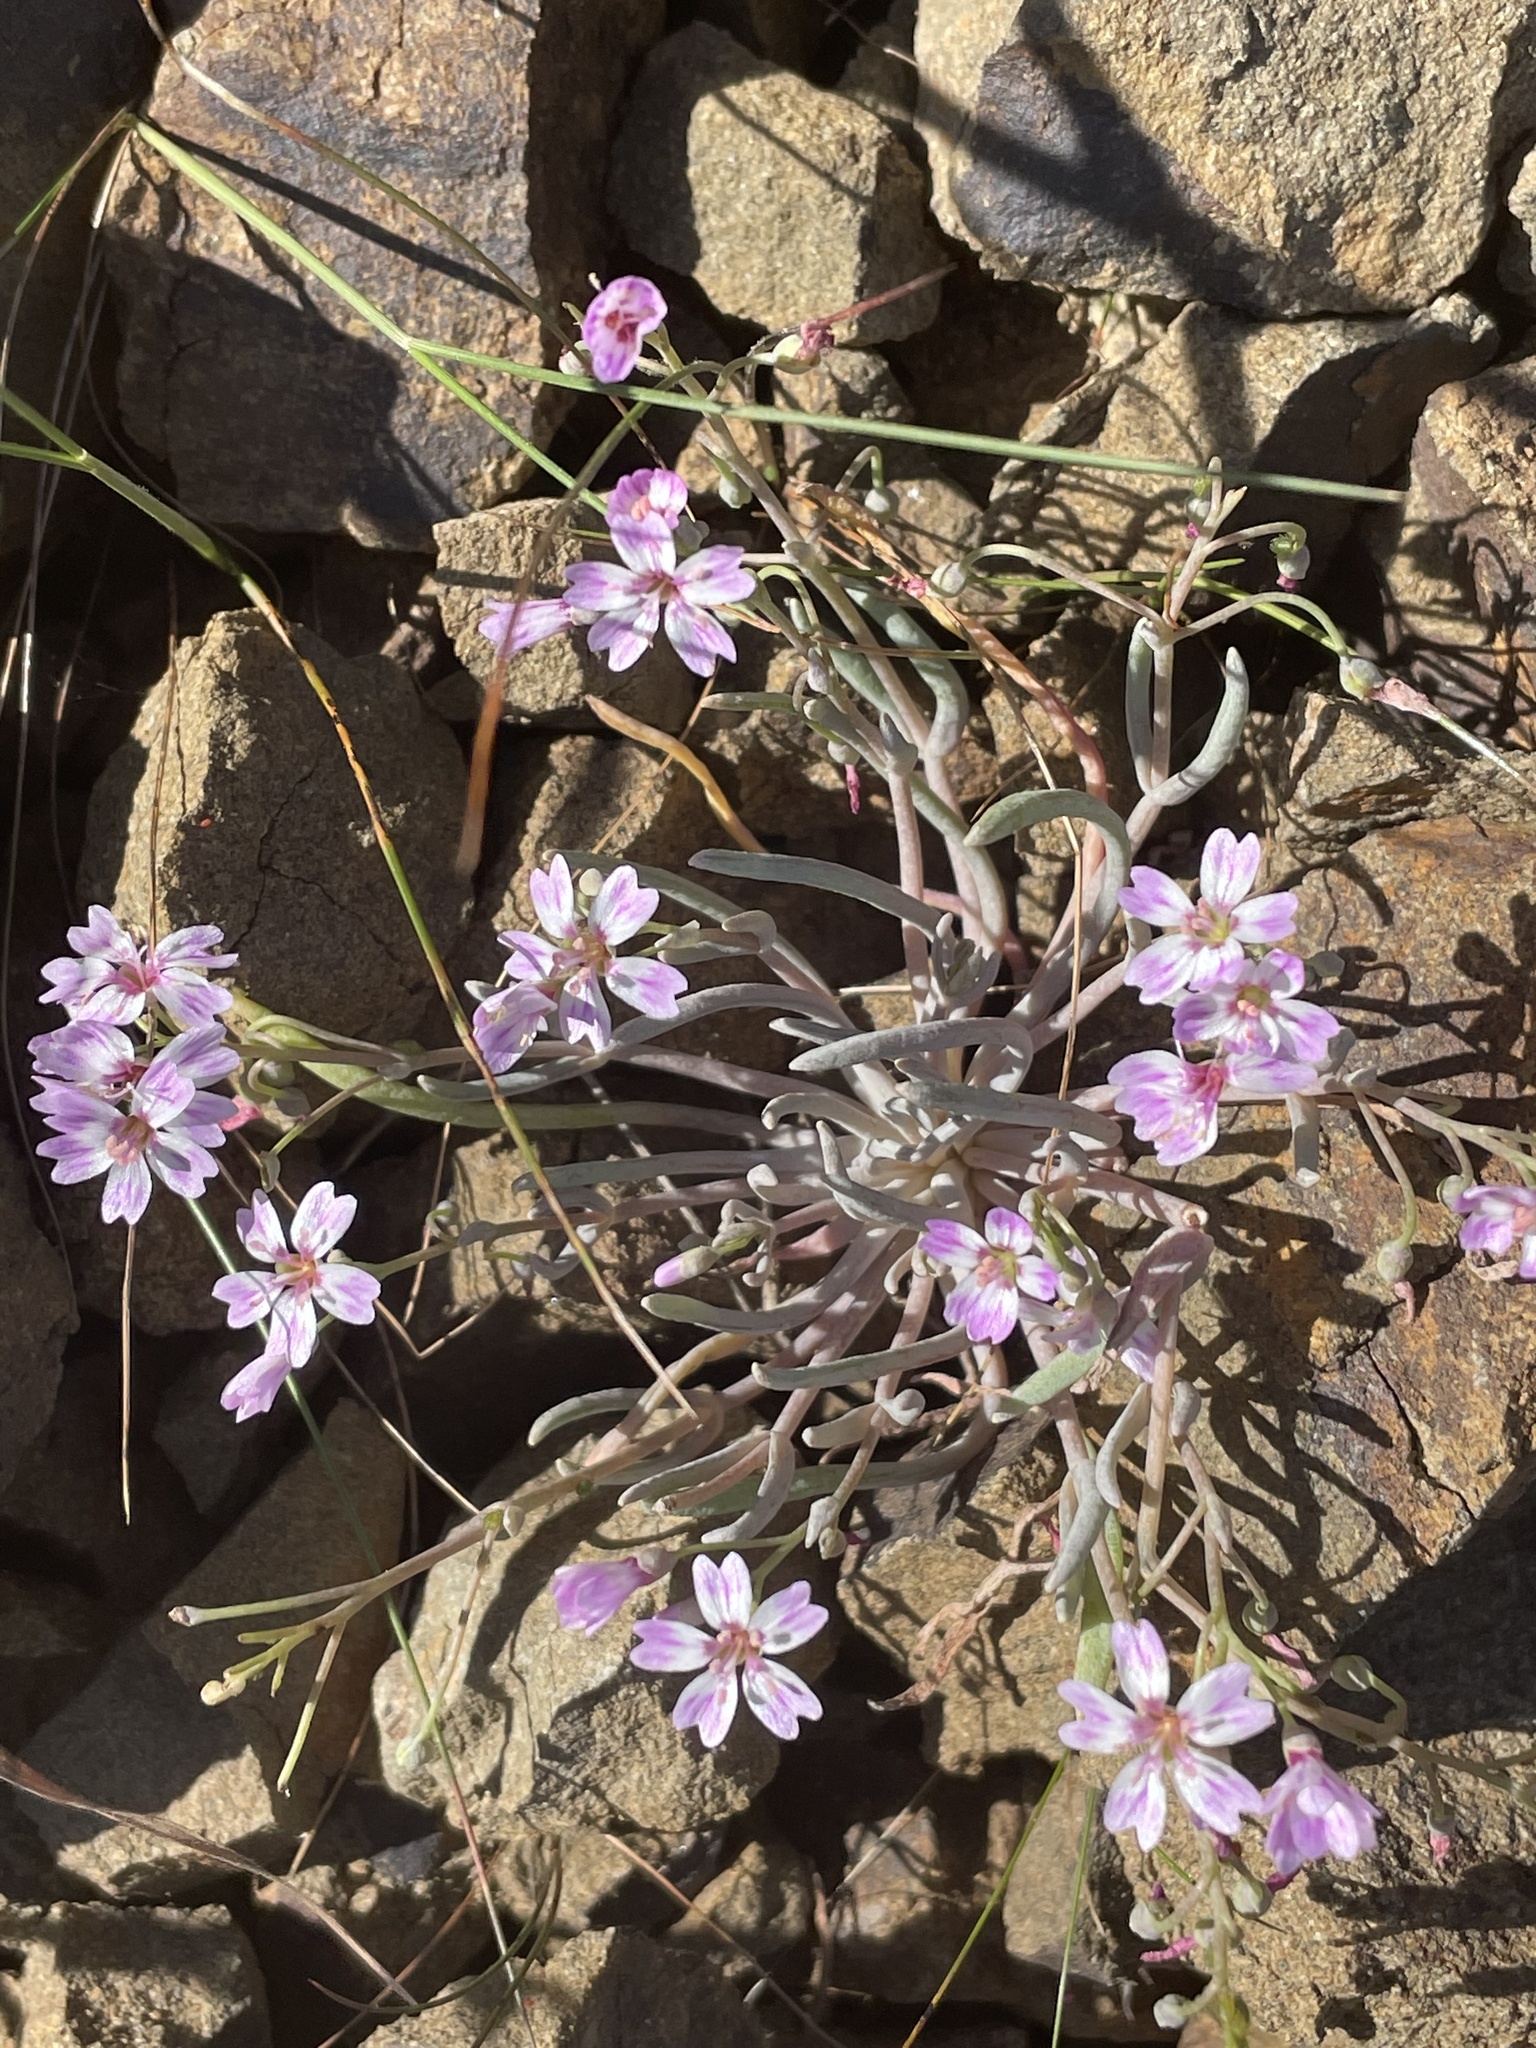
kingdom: Plantae
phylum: Tracheophyta
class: Magnoliopsida
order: Caryophyllales
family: Montiaceae
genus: Claytonia
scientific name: Claytonia gypsophiloides
